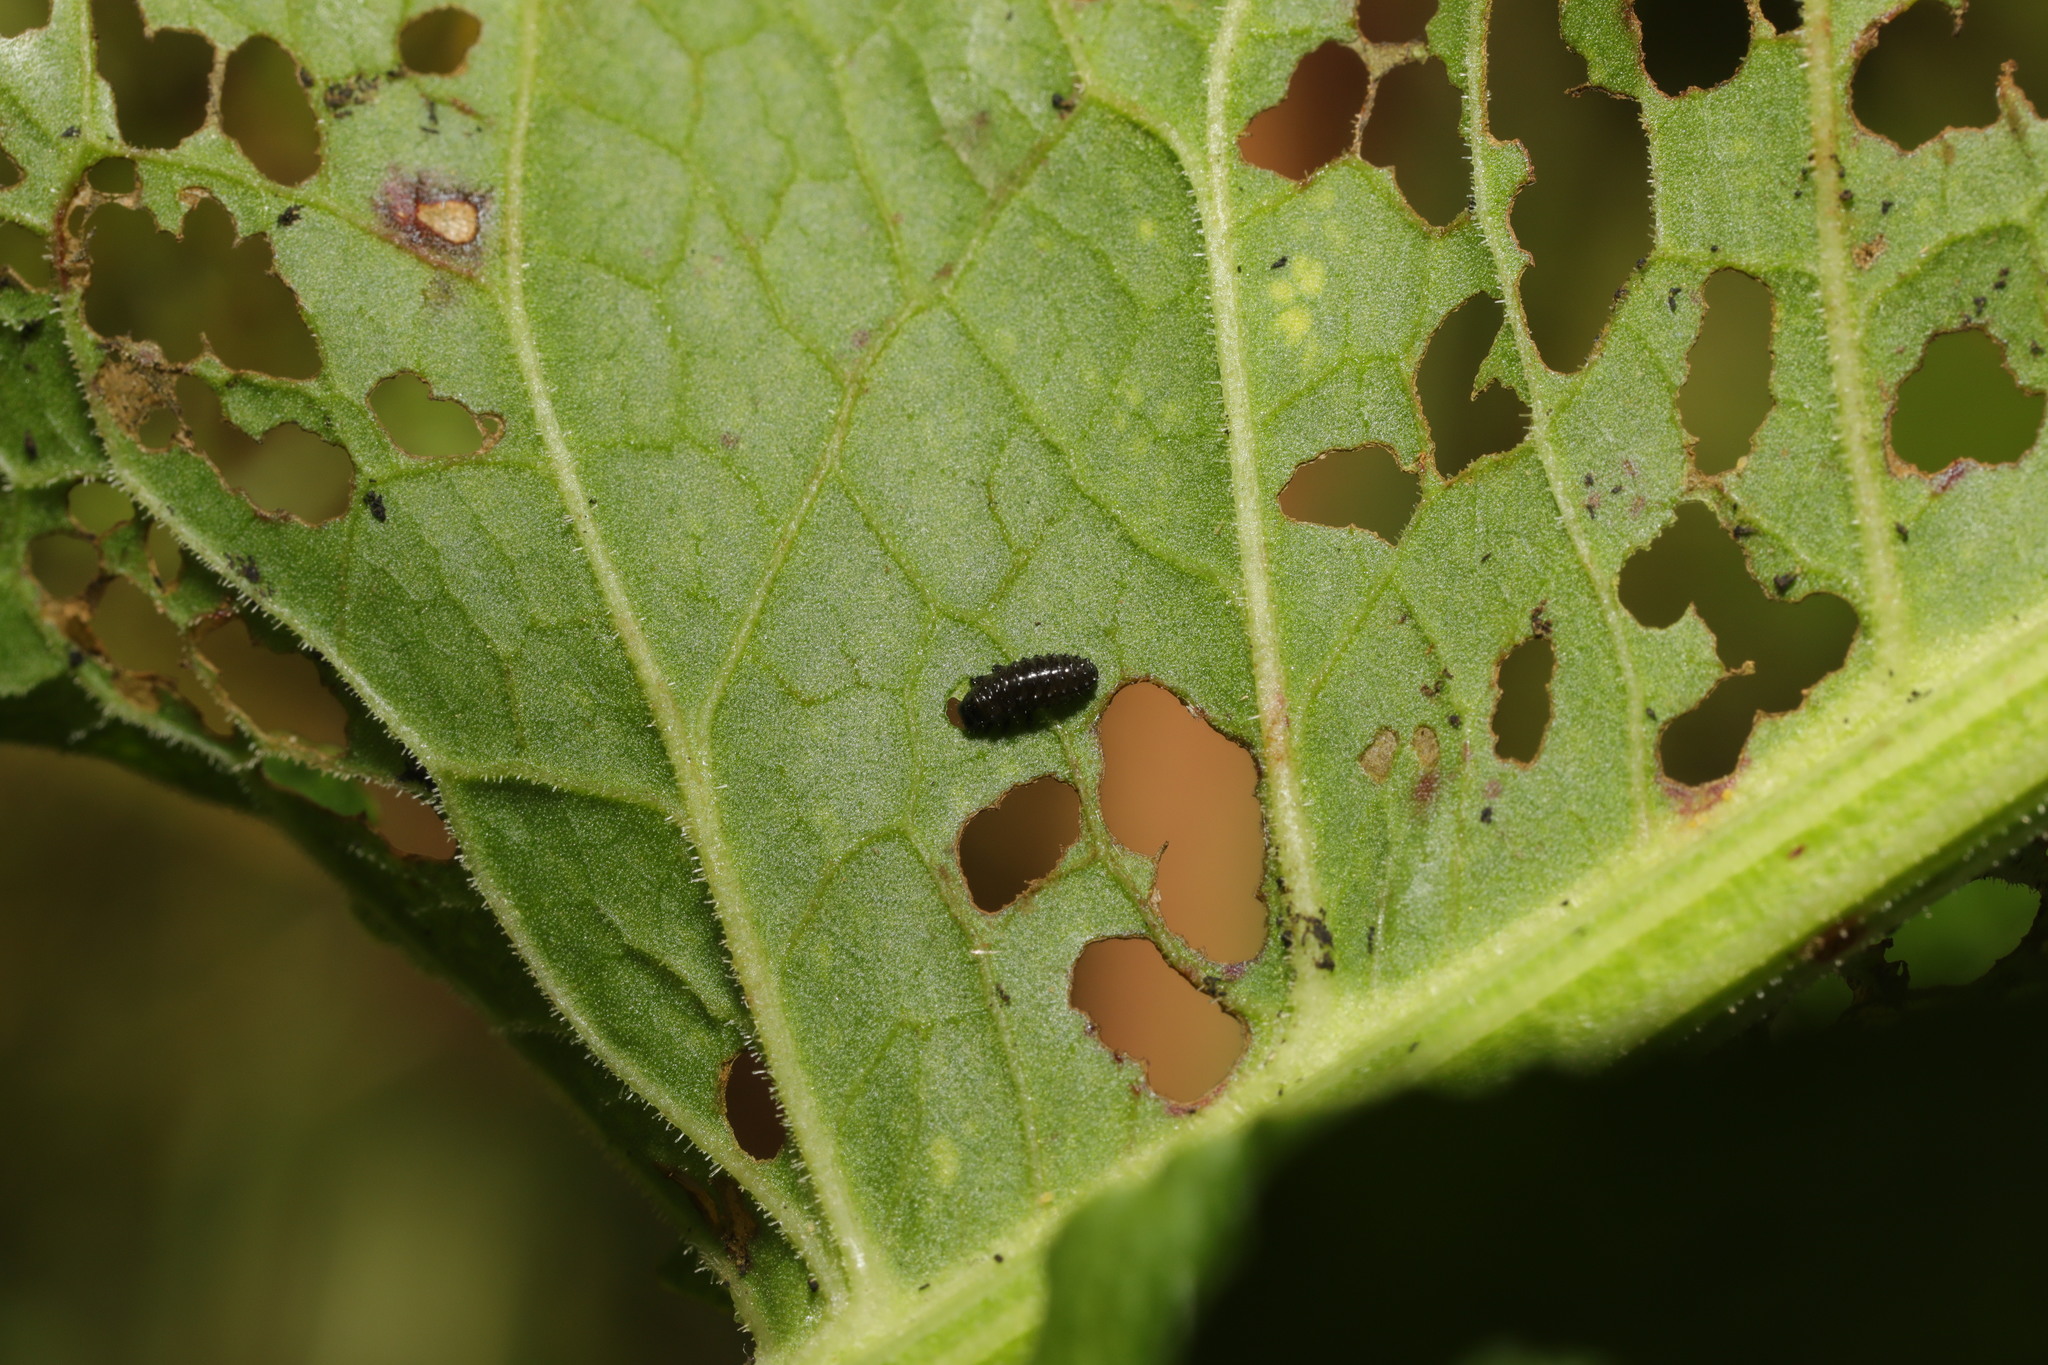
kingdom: Animalia
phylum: Arthropoda
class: Insecta
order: Coleoptera
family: Chrysomelidae
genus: Gastrophysa
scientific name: Gastrophysa viridula
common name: Green dock beetle
